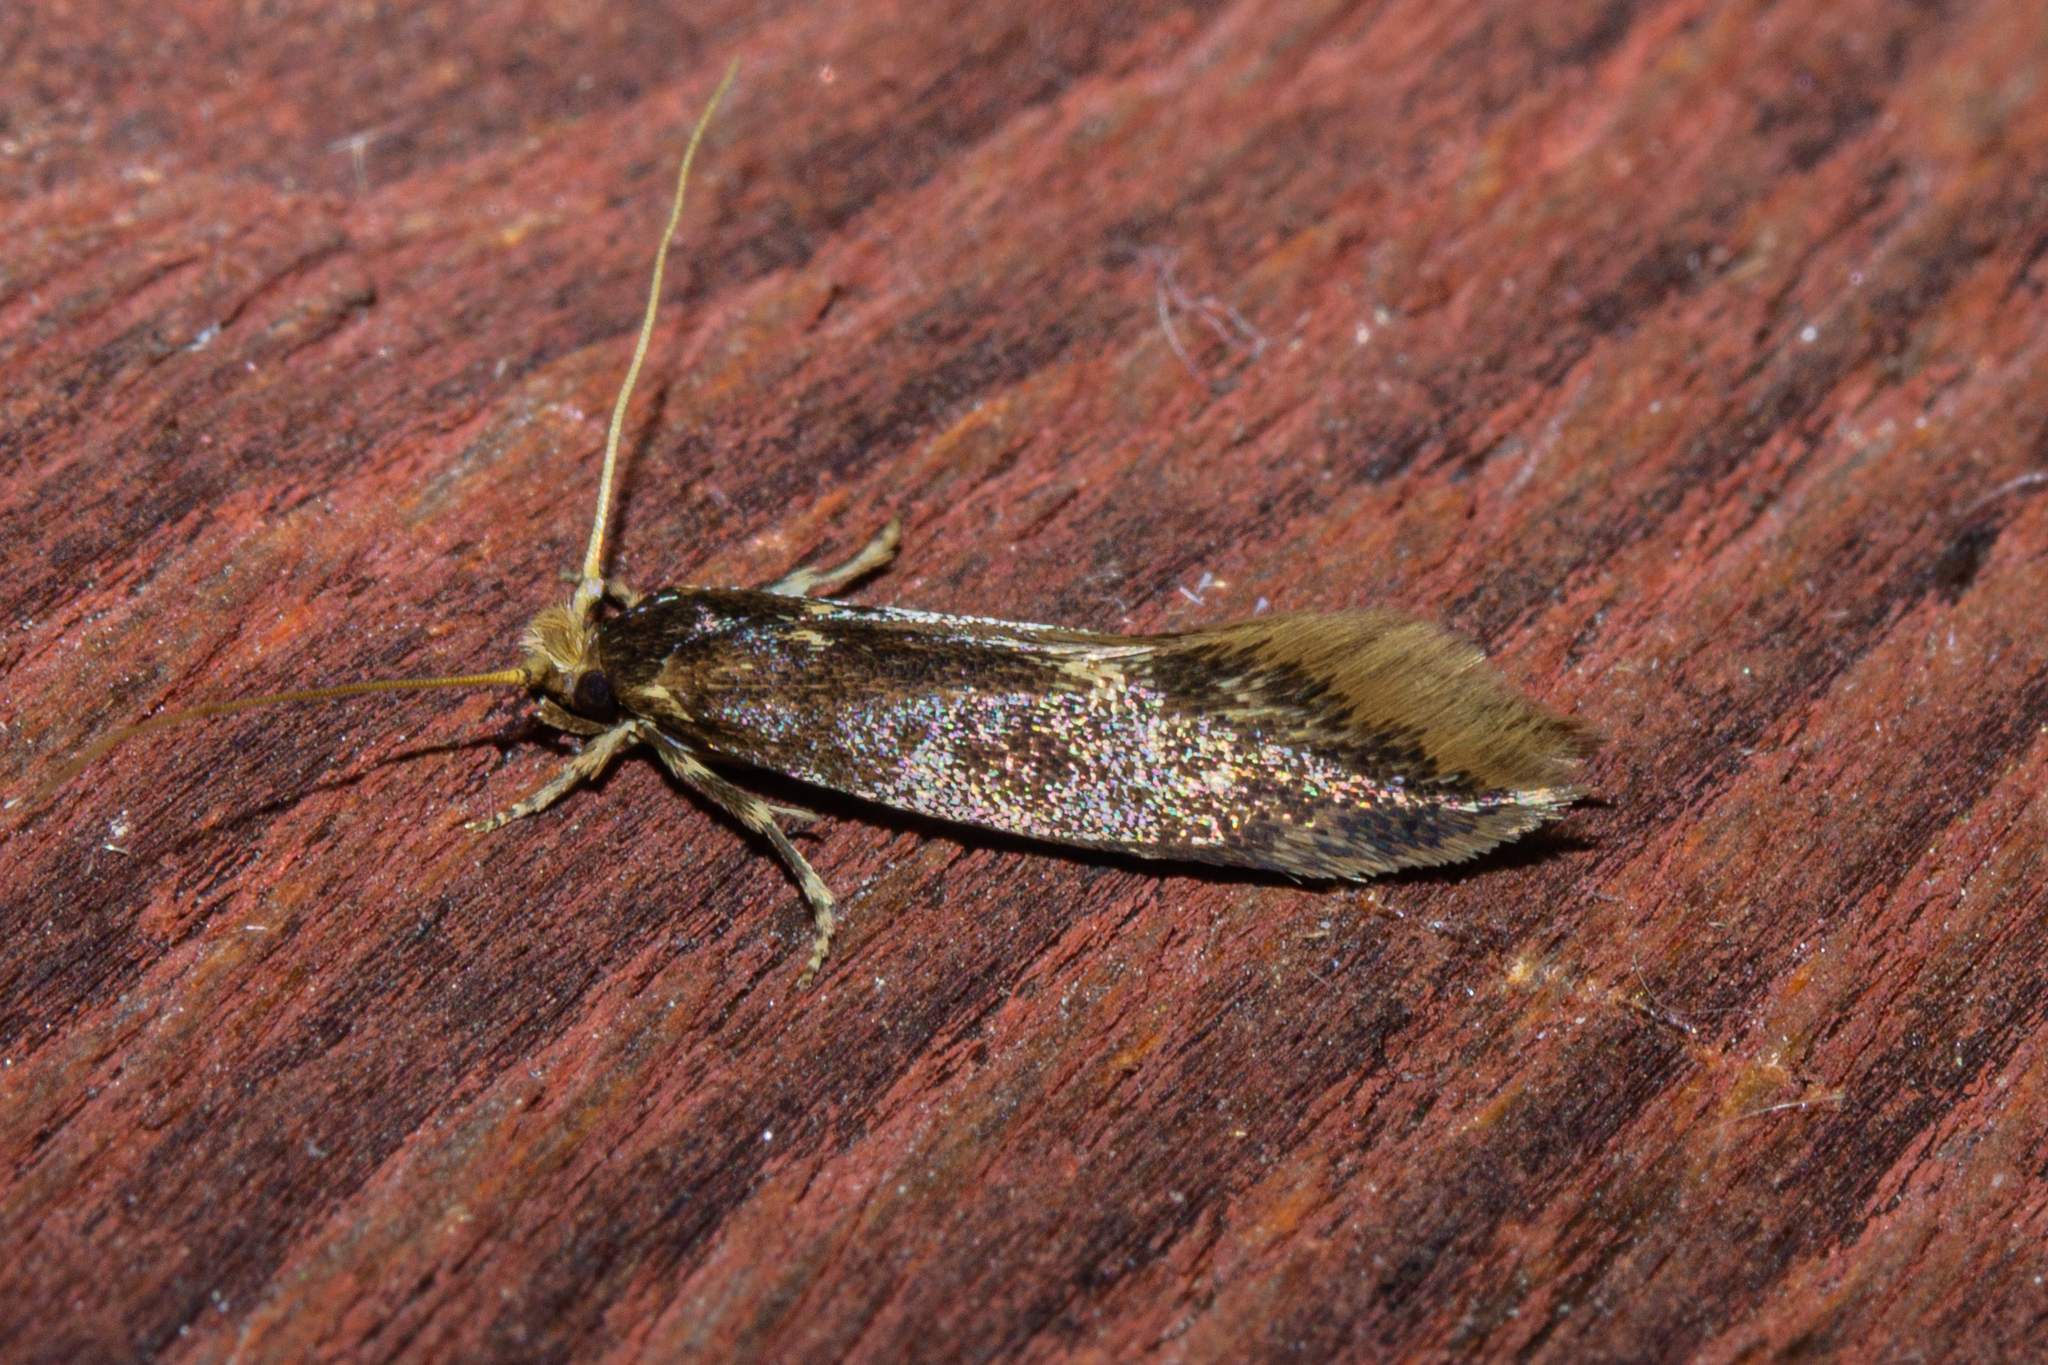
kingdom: Animalia
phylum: Arthropoda
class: Insecta
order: Lepidoptera
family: Tineidae
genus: Opogona
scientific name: Opogona omoscopa
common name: Moth
